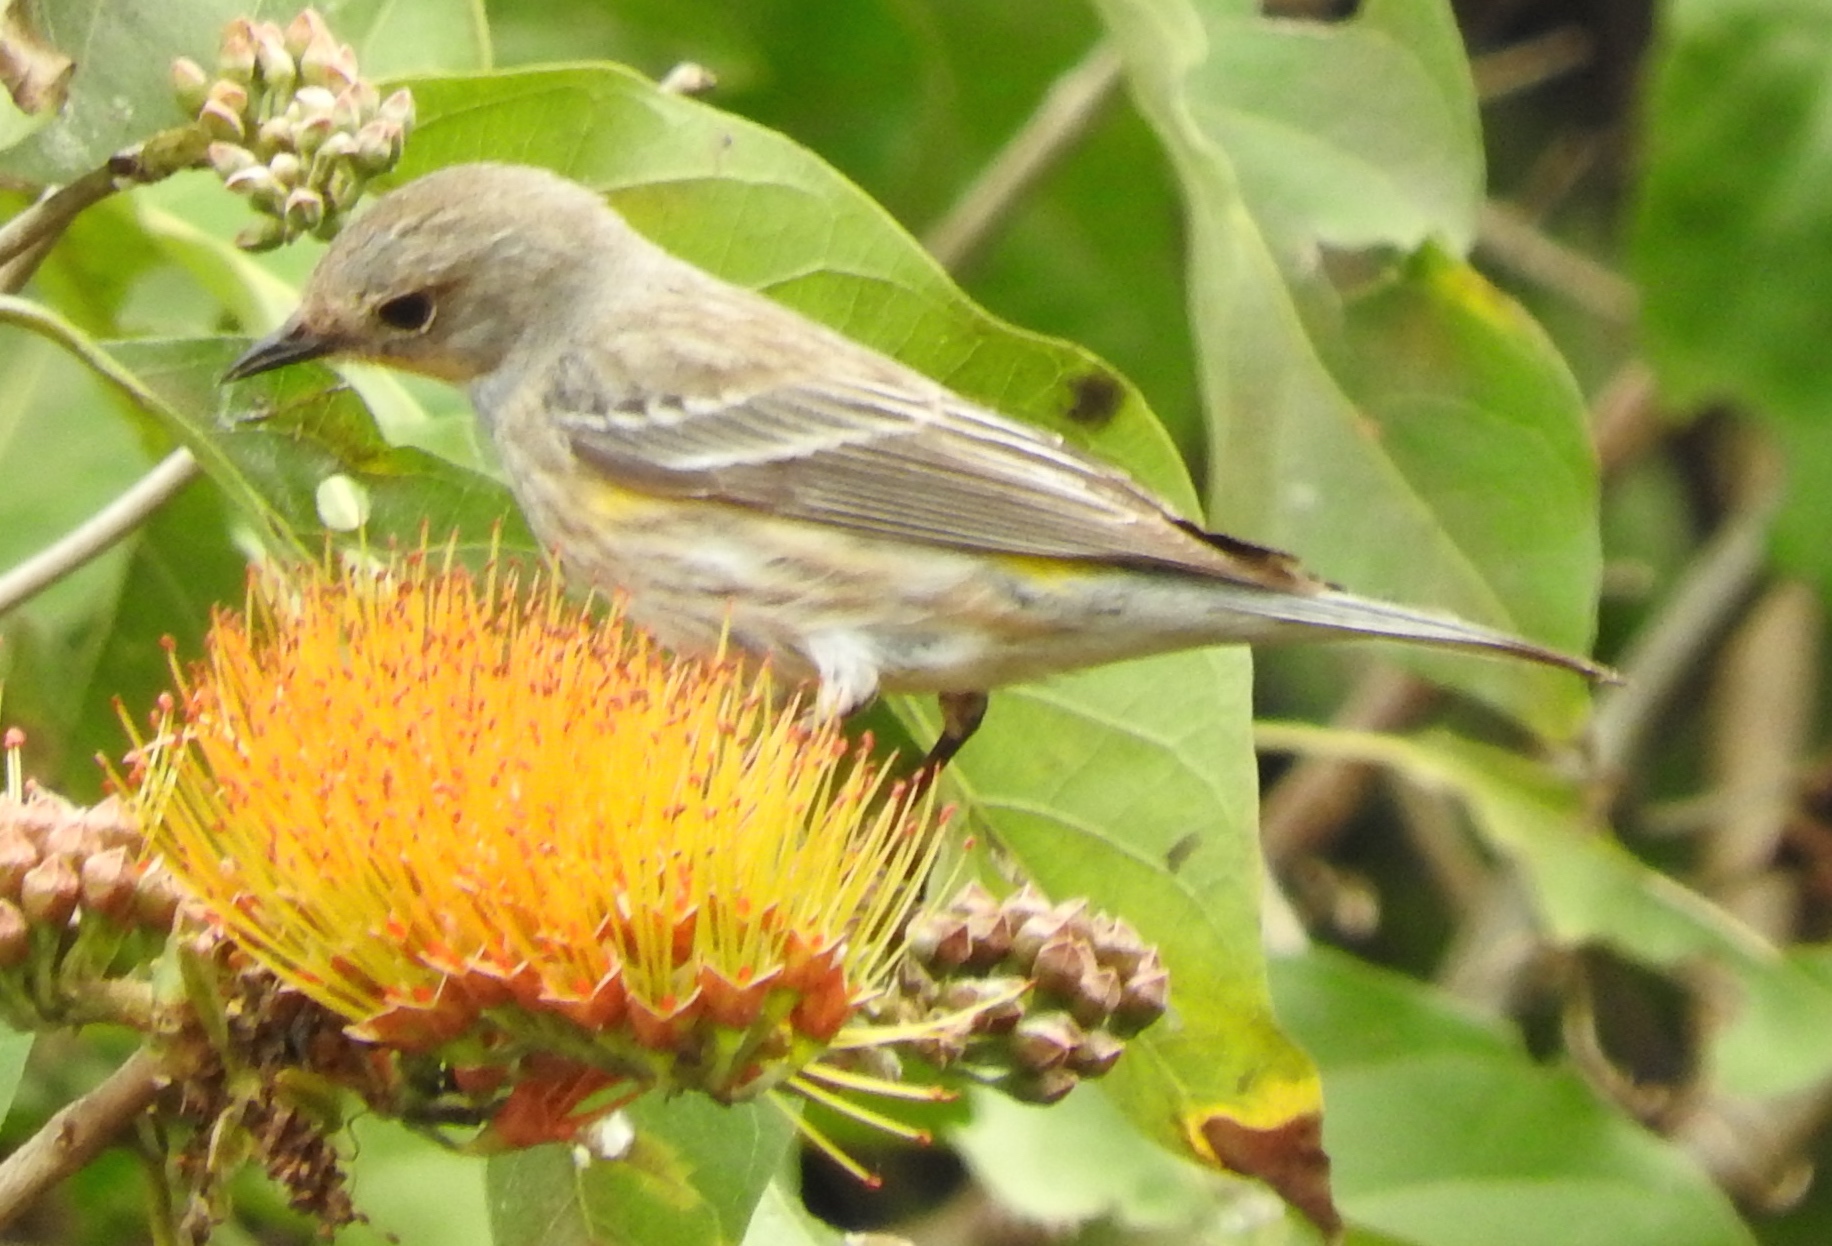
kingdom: Animalia
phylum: Chordata
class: Aves
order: Passeriformes
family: Parulidae
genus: Setophaga
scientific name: Setophaga coronata
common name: Myrtle warbler
